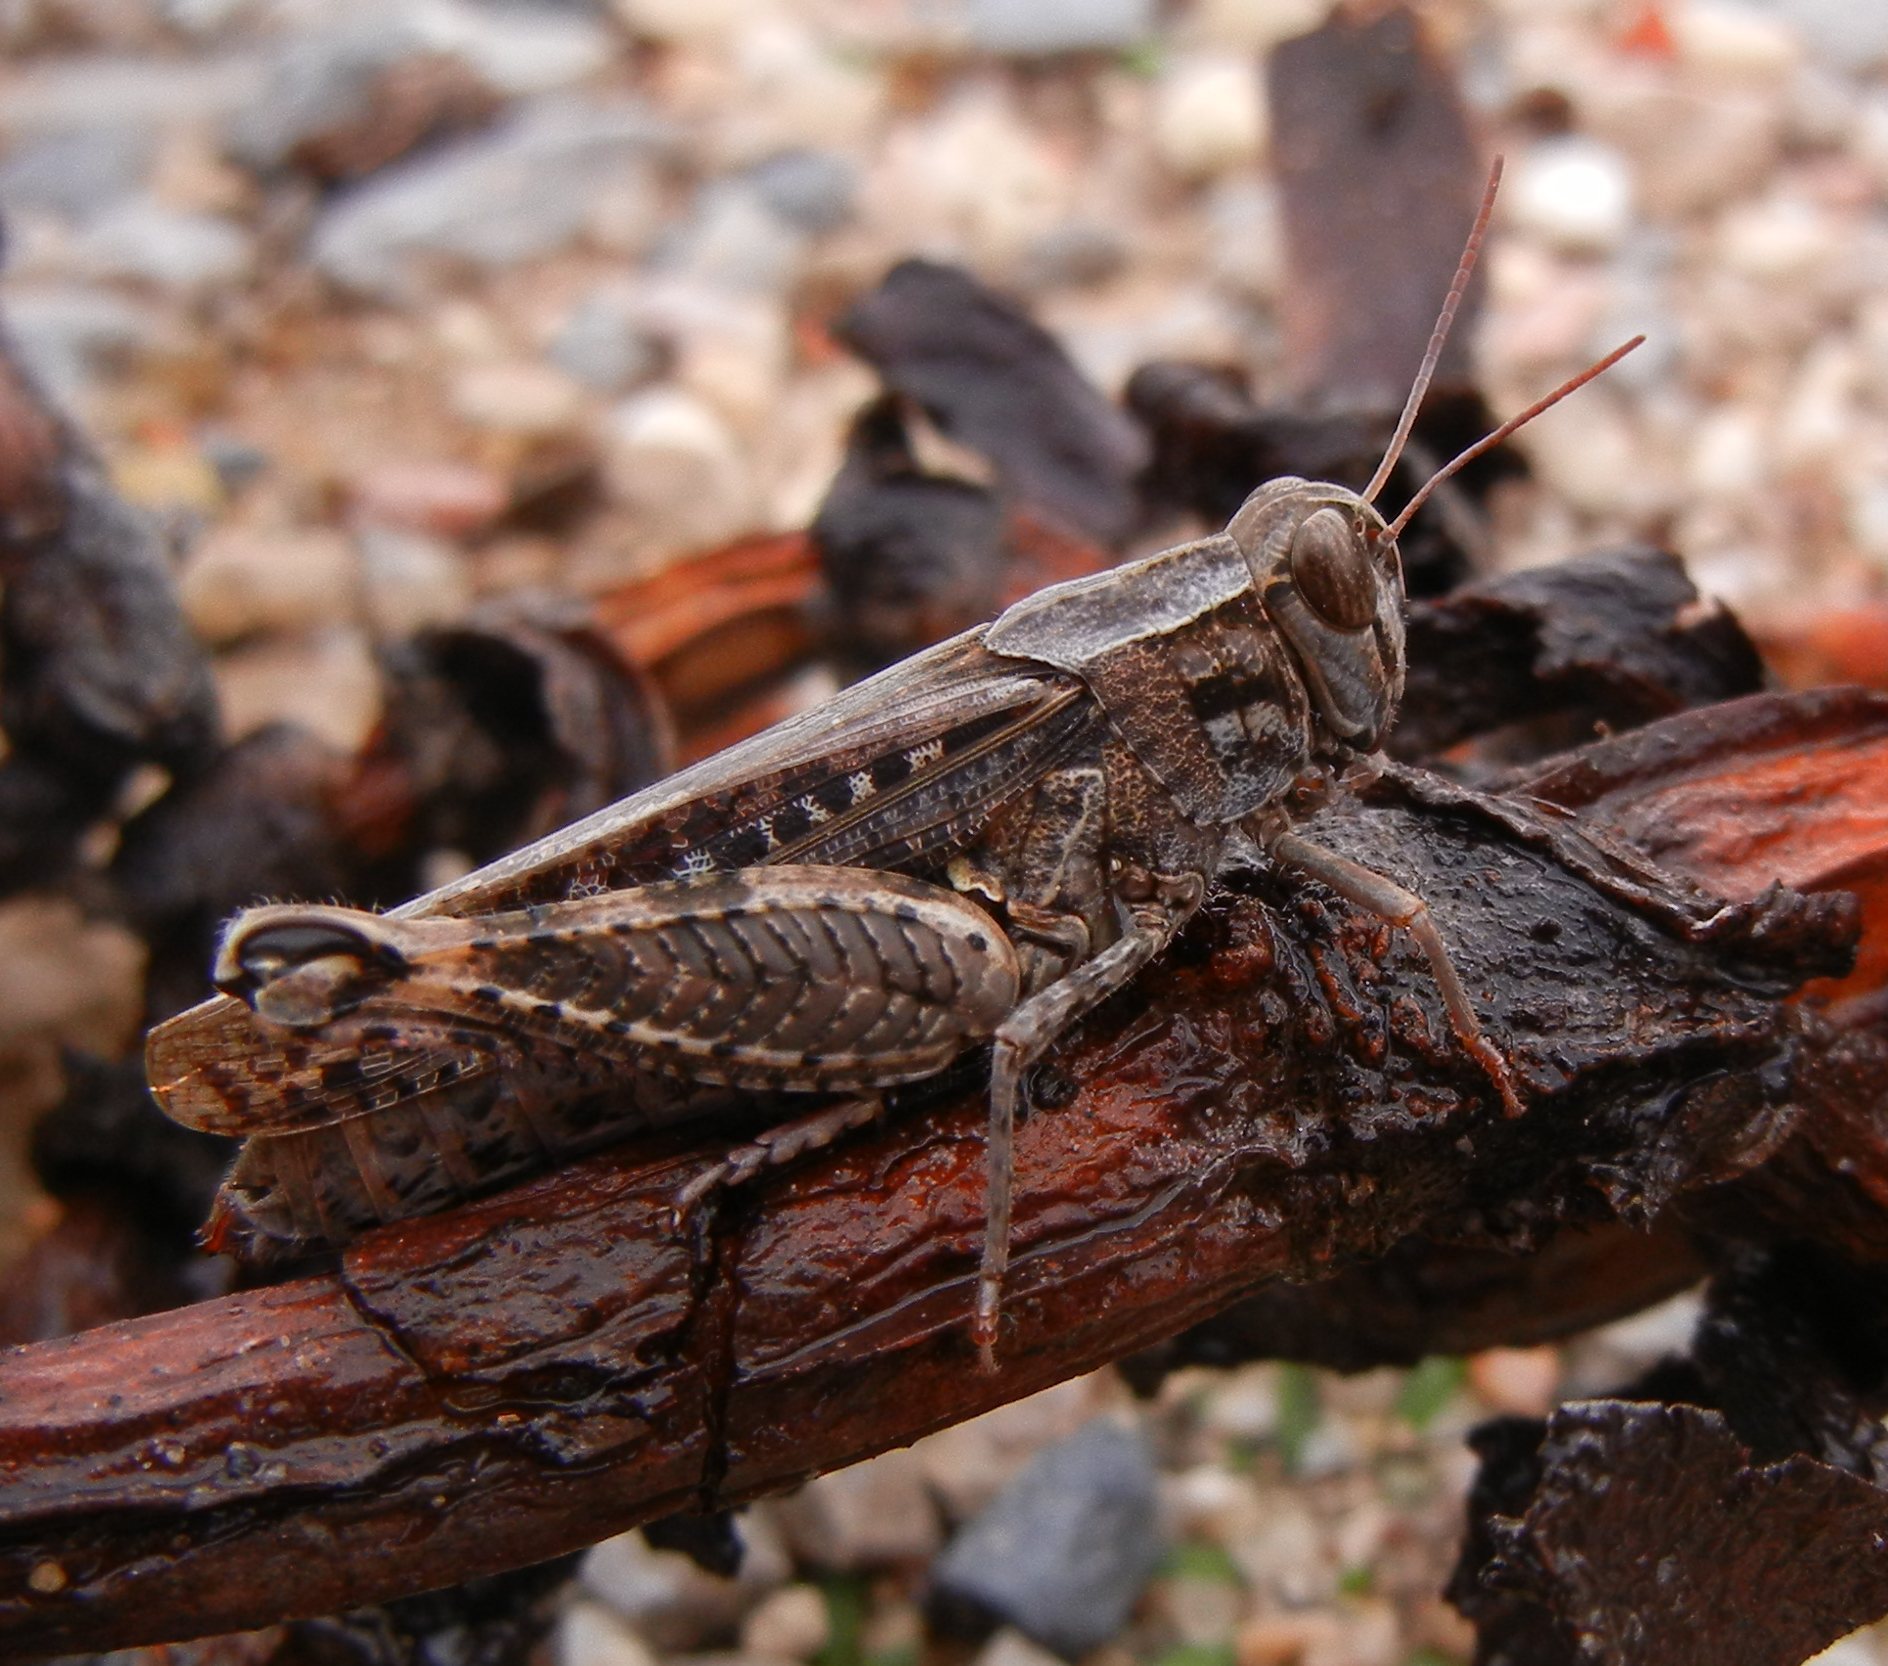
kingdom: Animalia
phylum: Arthropoda
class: Insecta
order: Orthoptera
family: Acrididae
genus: Calliptamus
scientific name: Calliptamus barbarus
